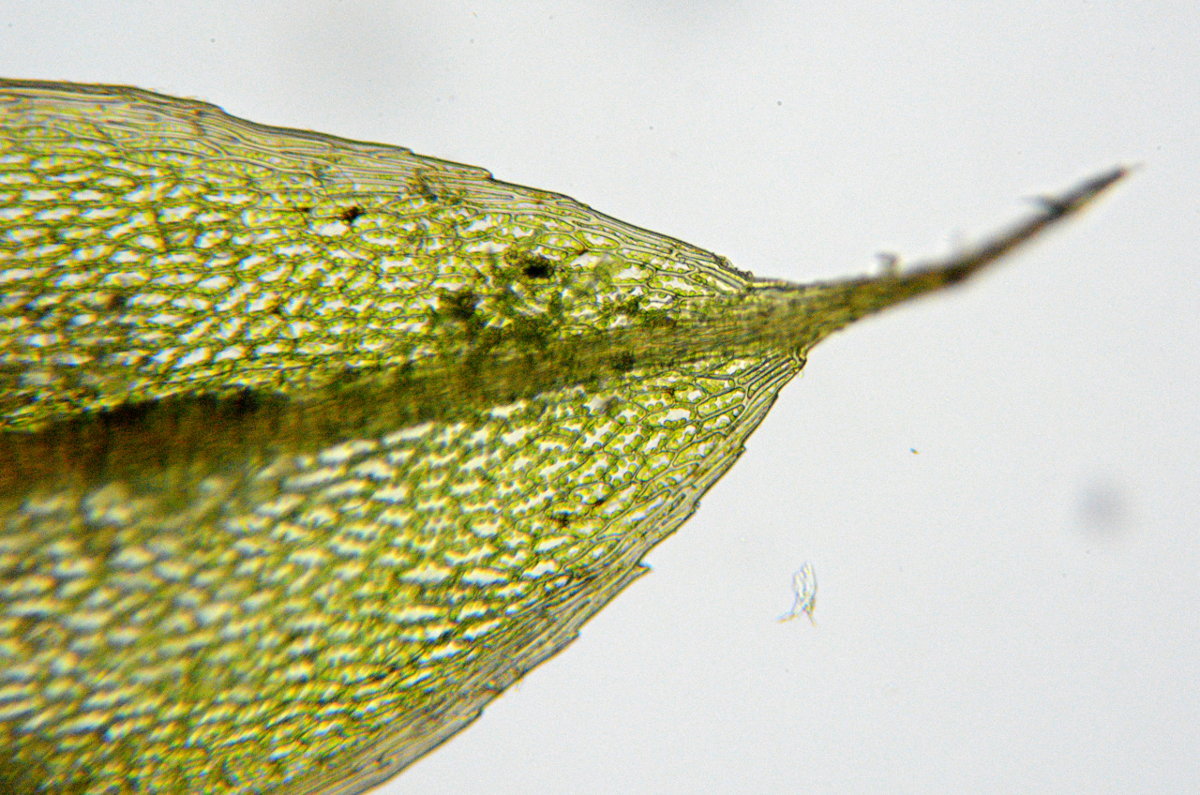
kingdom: Plantae
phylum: Bryophyta
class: Bryopsida
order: Bryales
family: Bryaceae
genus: Rosulabryum
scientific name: Rosulabryum capillare
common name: Capillary thread-moss
